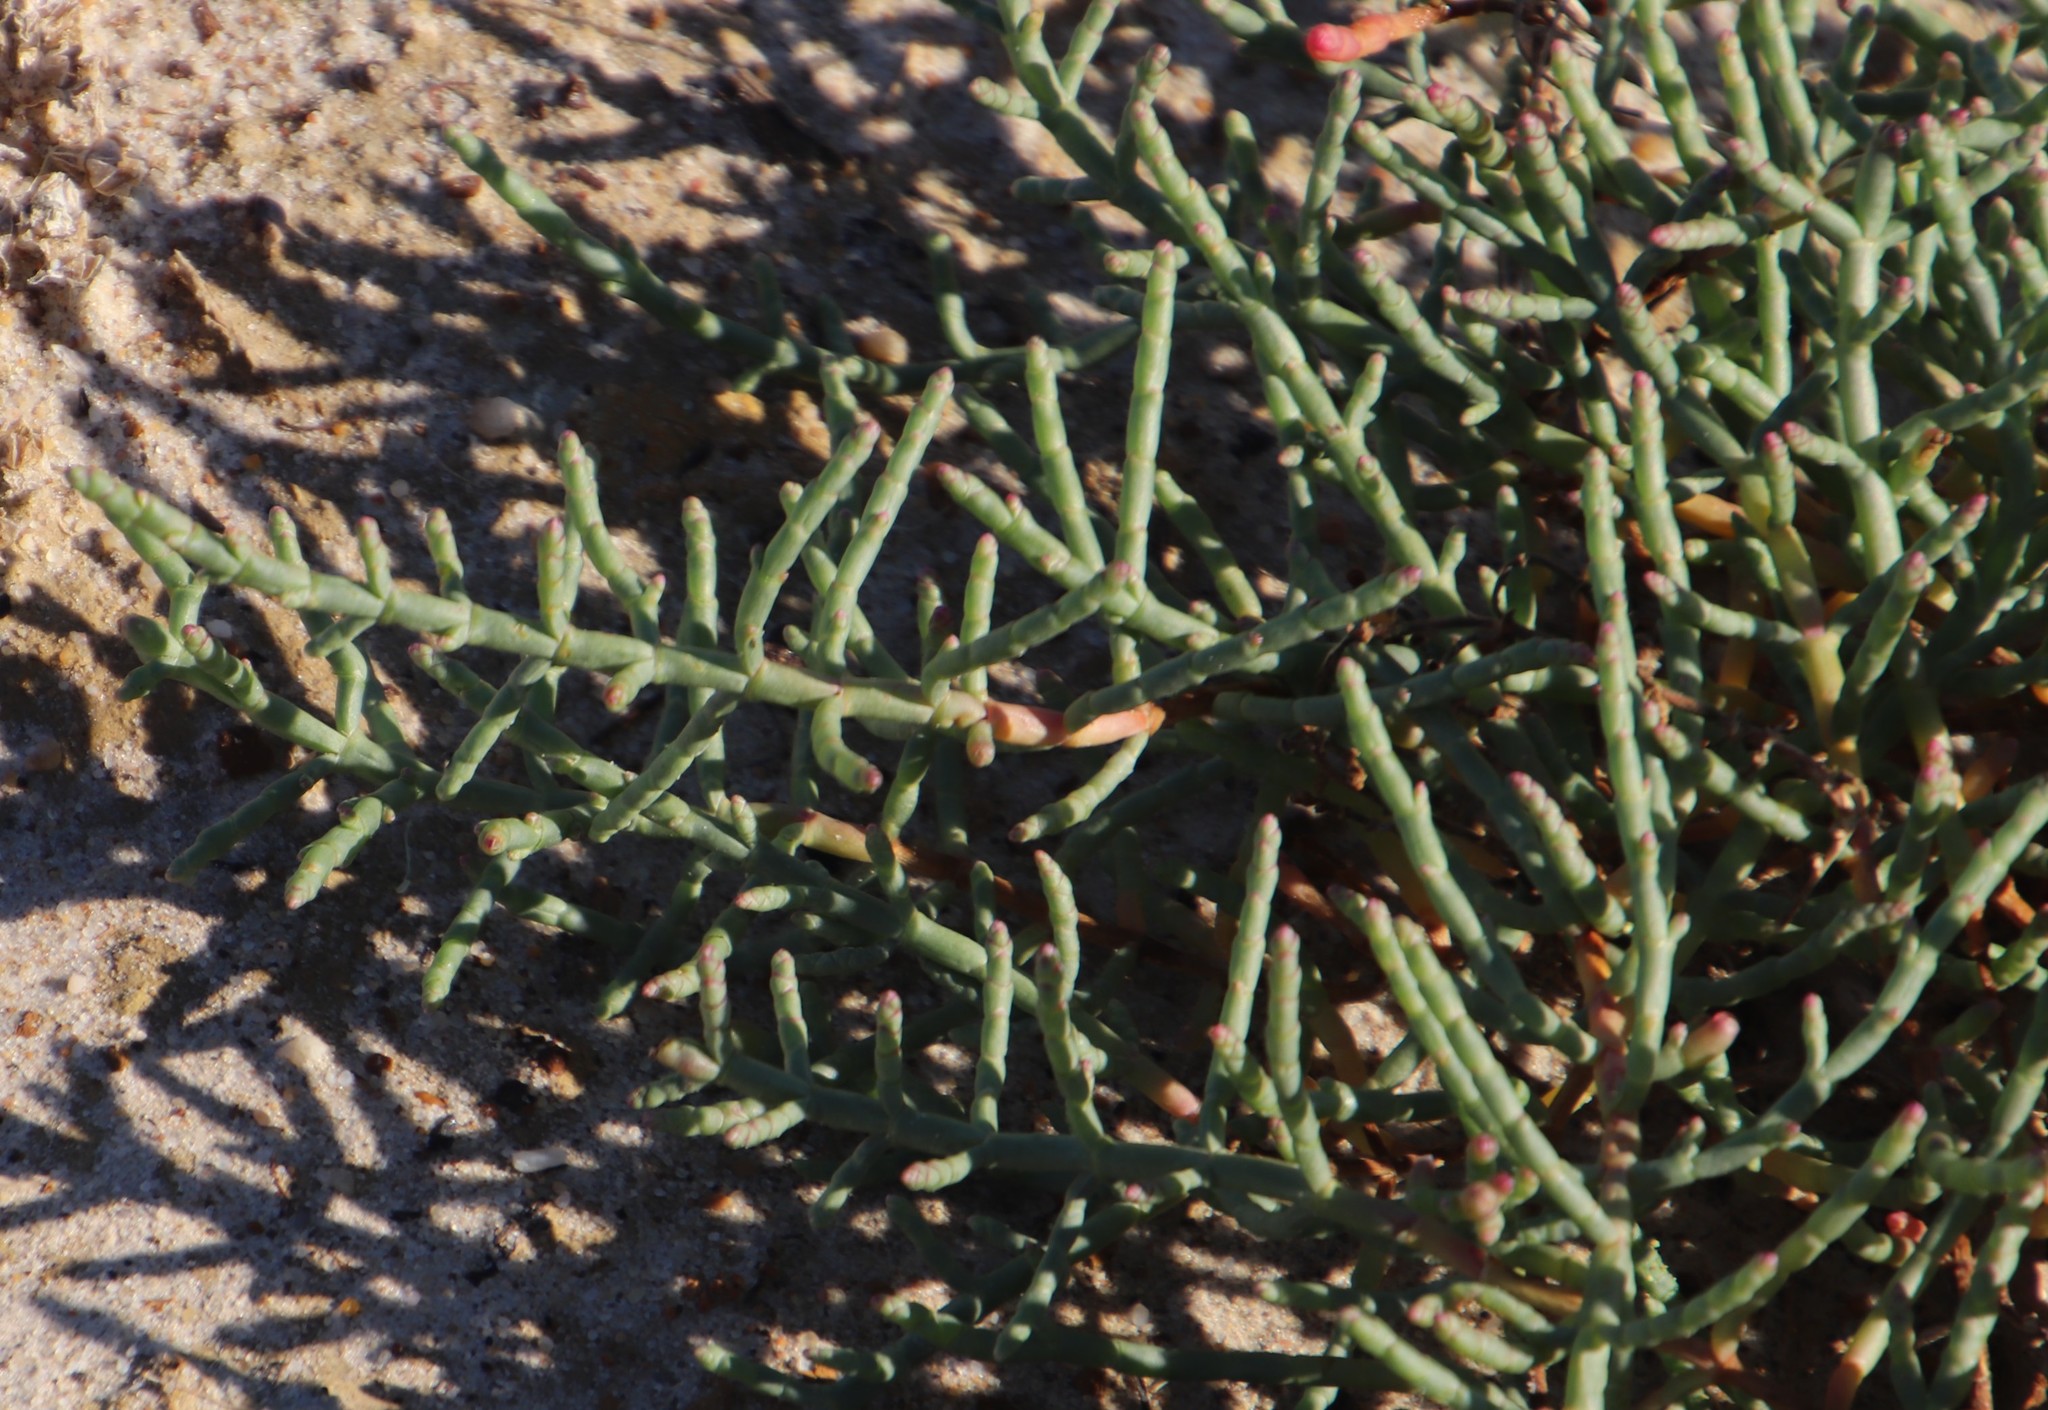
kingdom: Plantae
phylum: Tracheophyta
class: Magnoliopsida
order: Caryophyllales
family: Amaranthaceae
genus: Salicornia
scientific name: Salicornia pillansii
